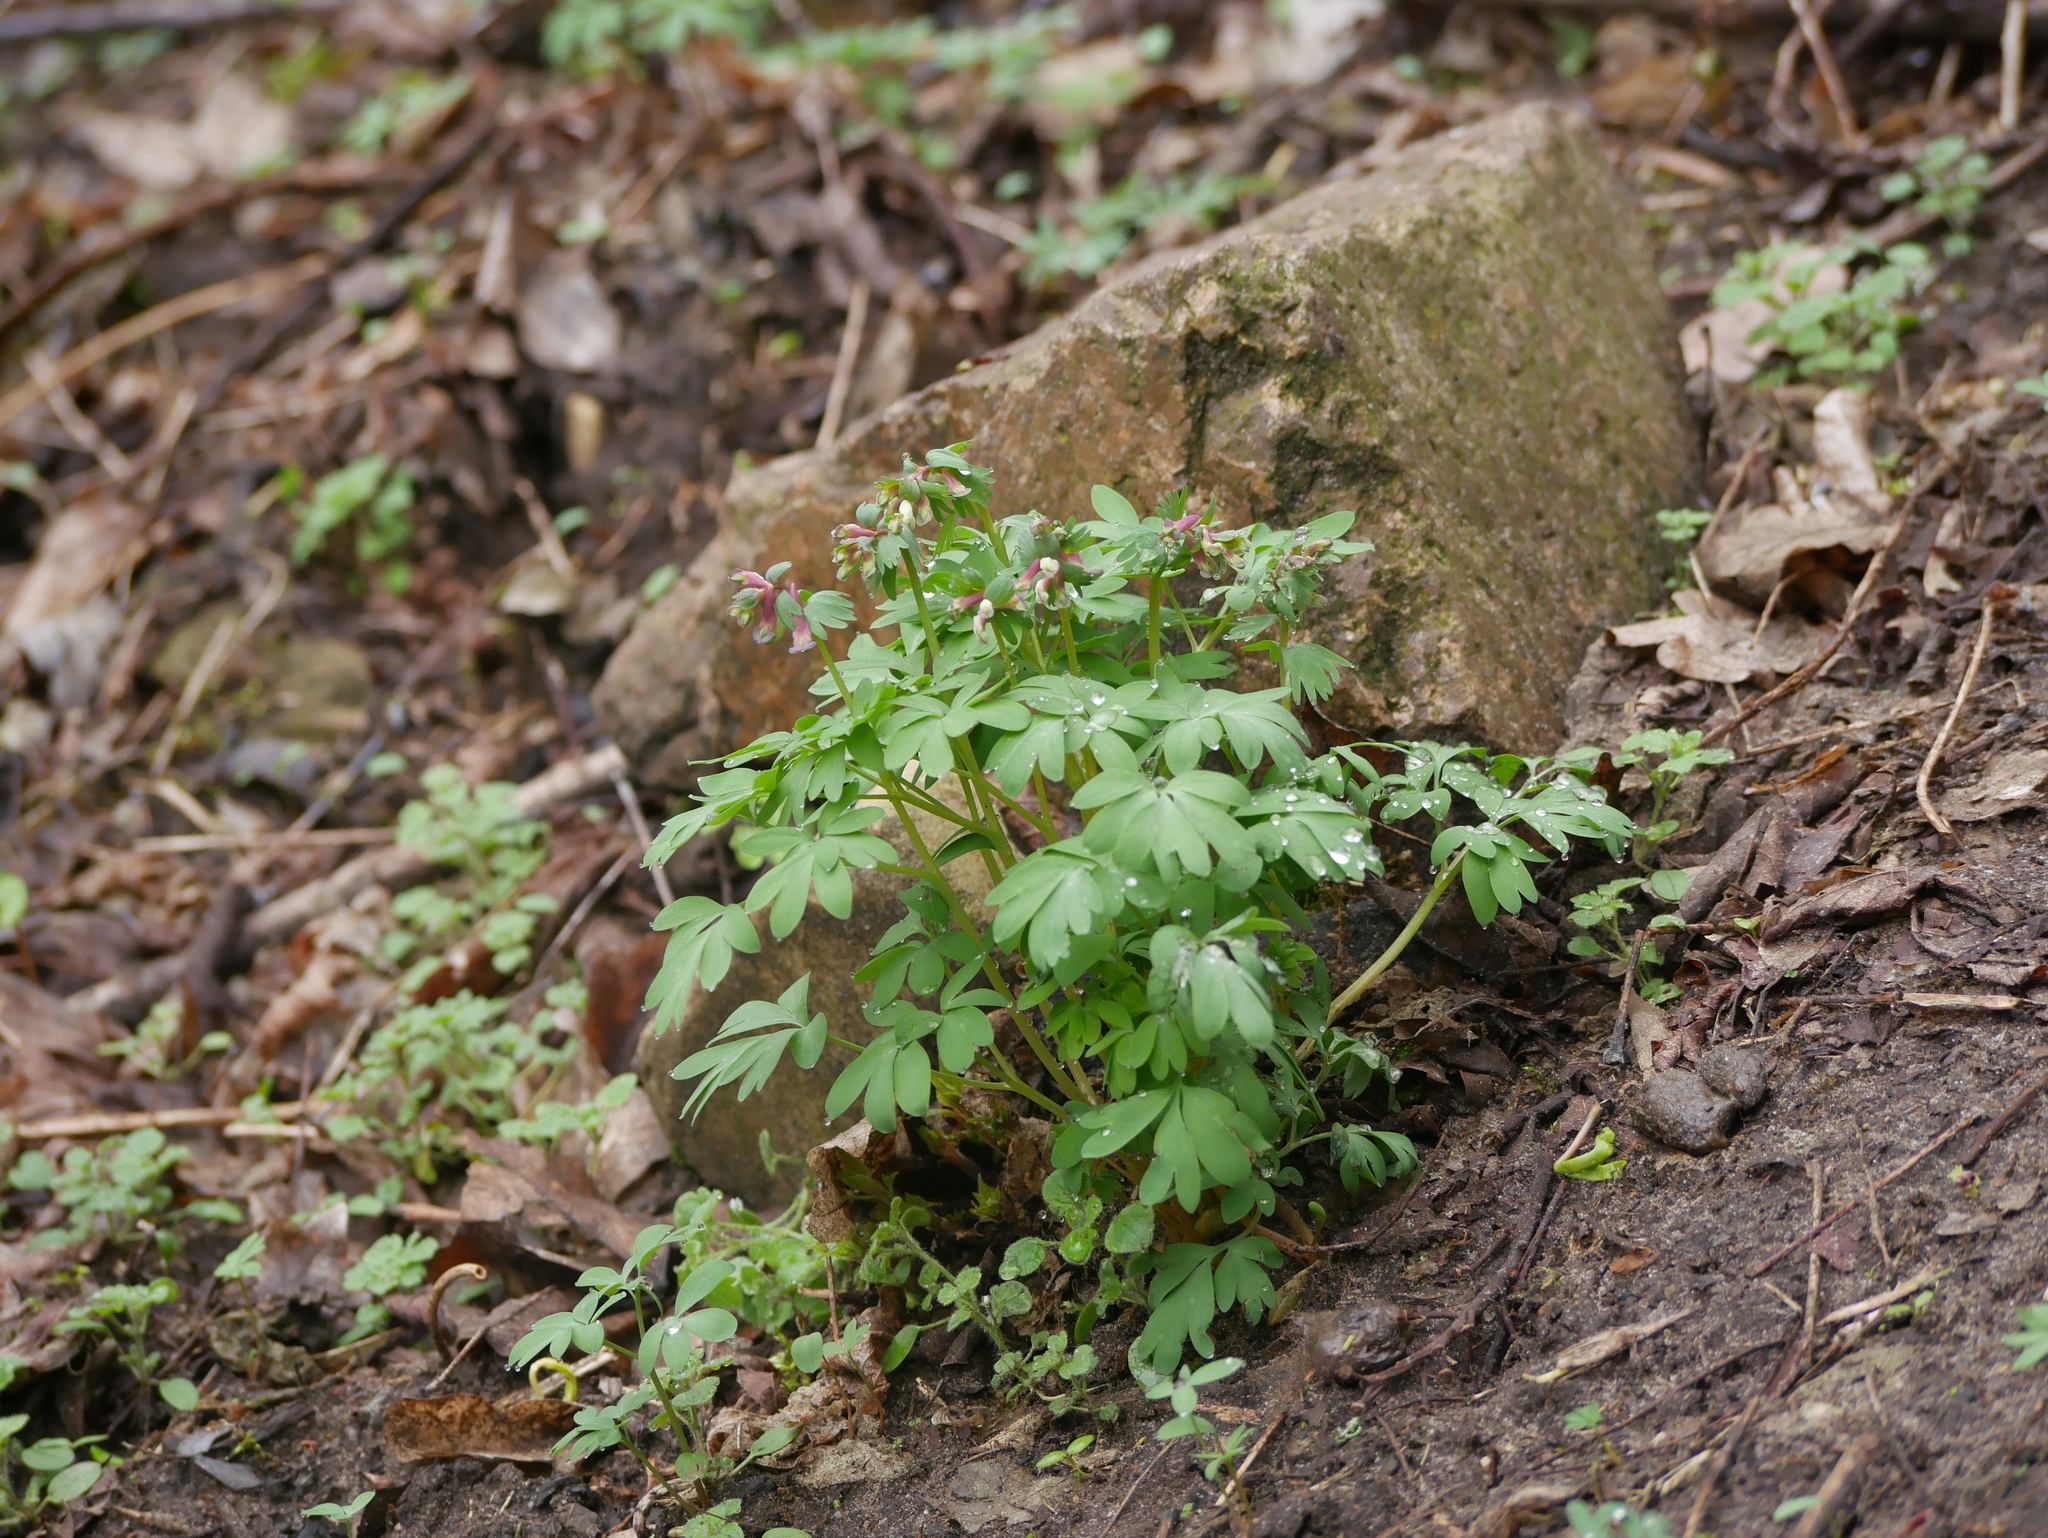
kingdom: Plantae
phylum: Tracheophyta
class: Magnoliopsida
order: Ranunculales
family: Papaveraceae
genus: Corydalis
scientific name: Corydalis solida
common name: Bird-in-a-bush
